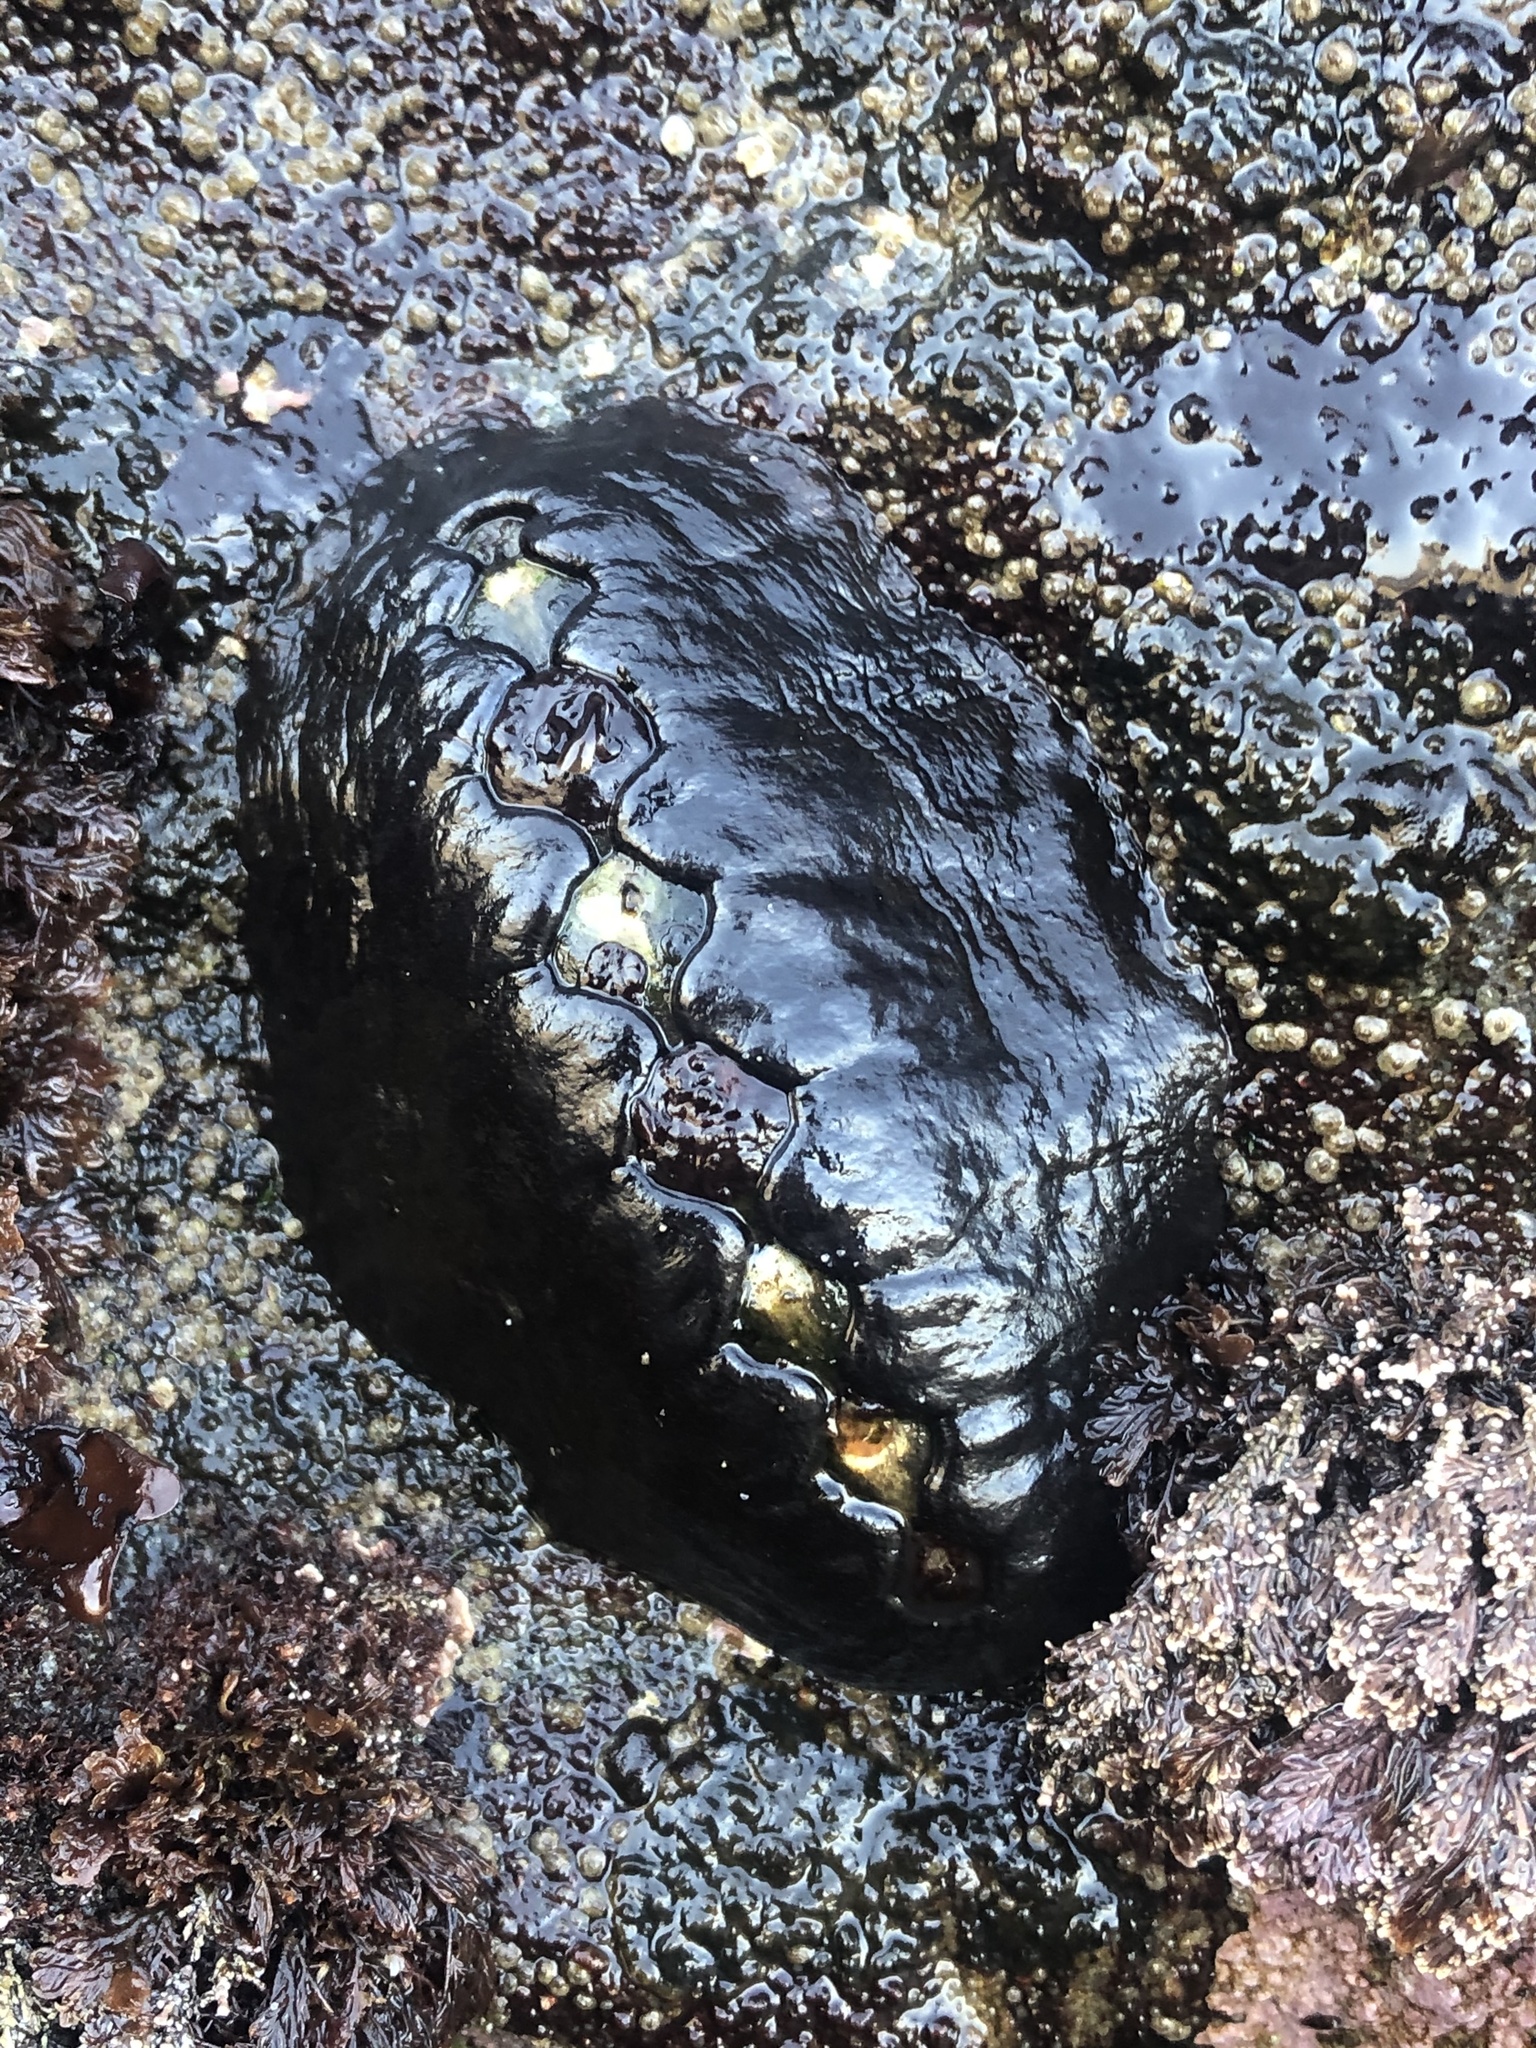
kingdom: Animalia
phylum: Mollusca
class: Polyplacophora
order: Chitonida
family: Mopaliidae
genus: Katharina
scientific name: Katharina tunicata
